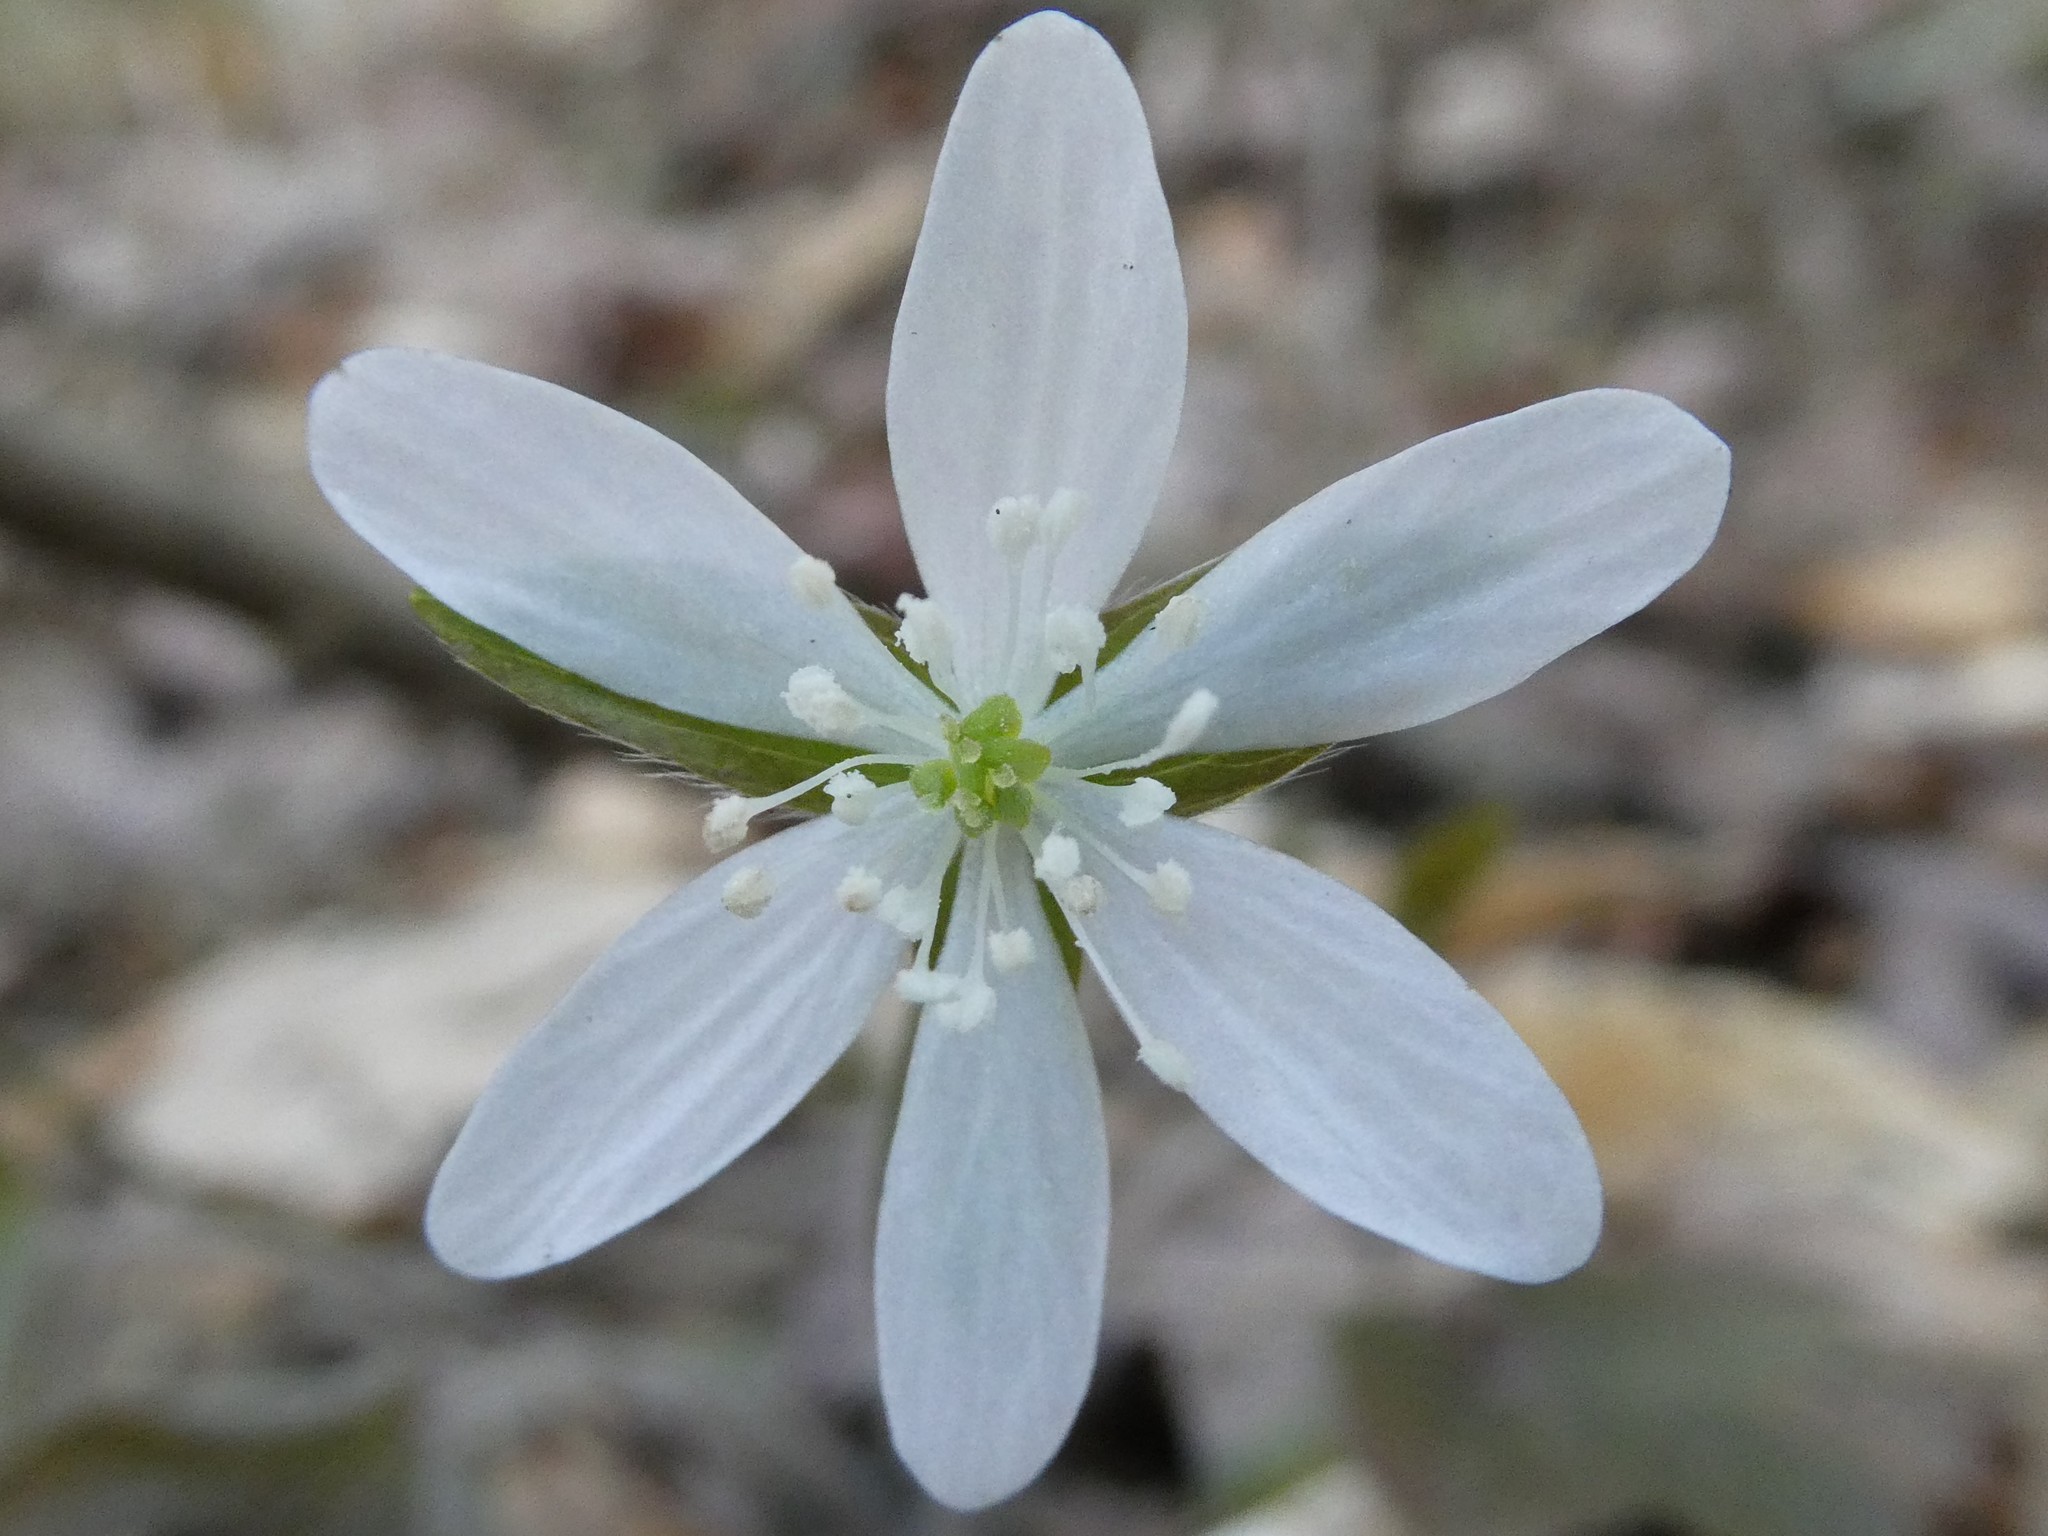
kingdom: Plantae
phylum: Tracheophyta
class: Magnoliopsida
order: Ranunculales
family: Ranunculaceae
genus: Hepatica
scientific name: Hepatica acutiloba
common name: Sharp-lobed hepatica
